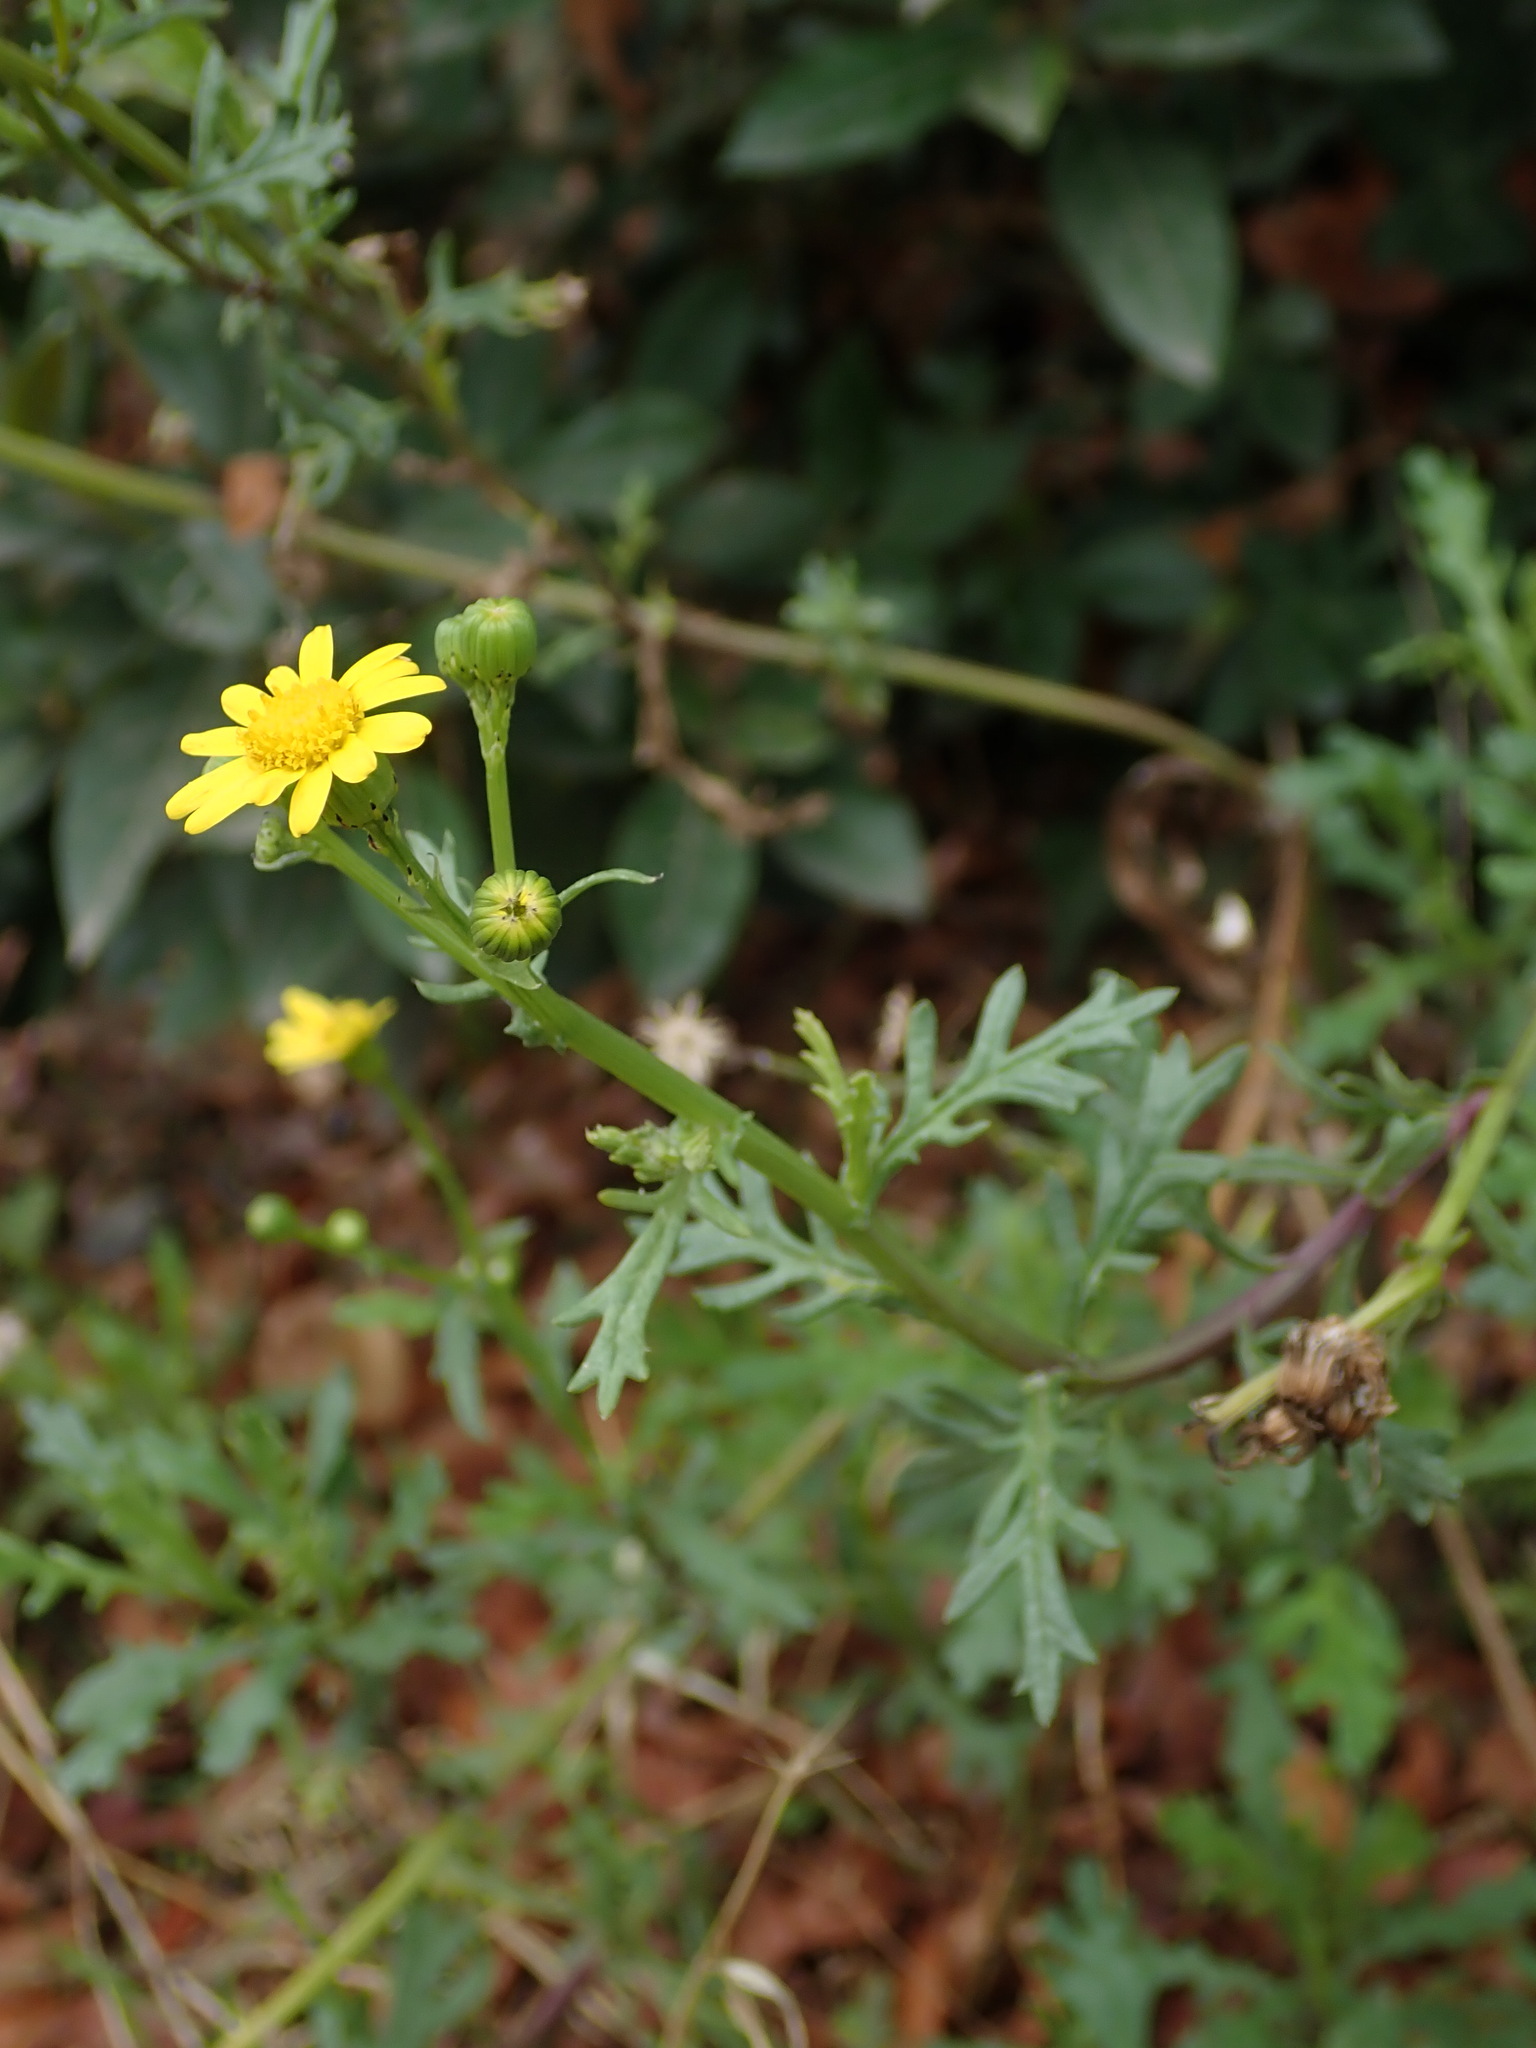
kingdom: Plantae
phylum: Tracheophyta
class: Magnoliopsida
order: Asterales
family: Asteraceae
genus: Senecio
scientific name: Senecio squalidus
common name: Oxford ragwort
